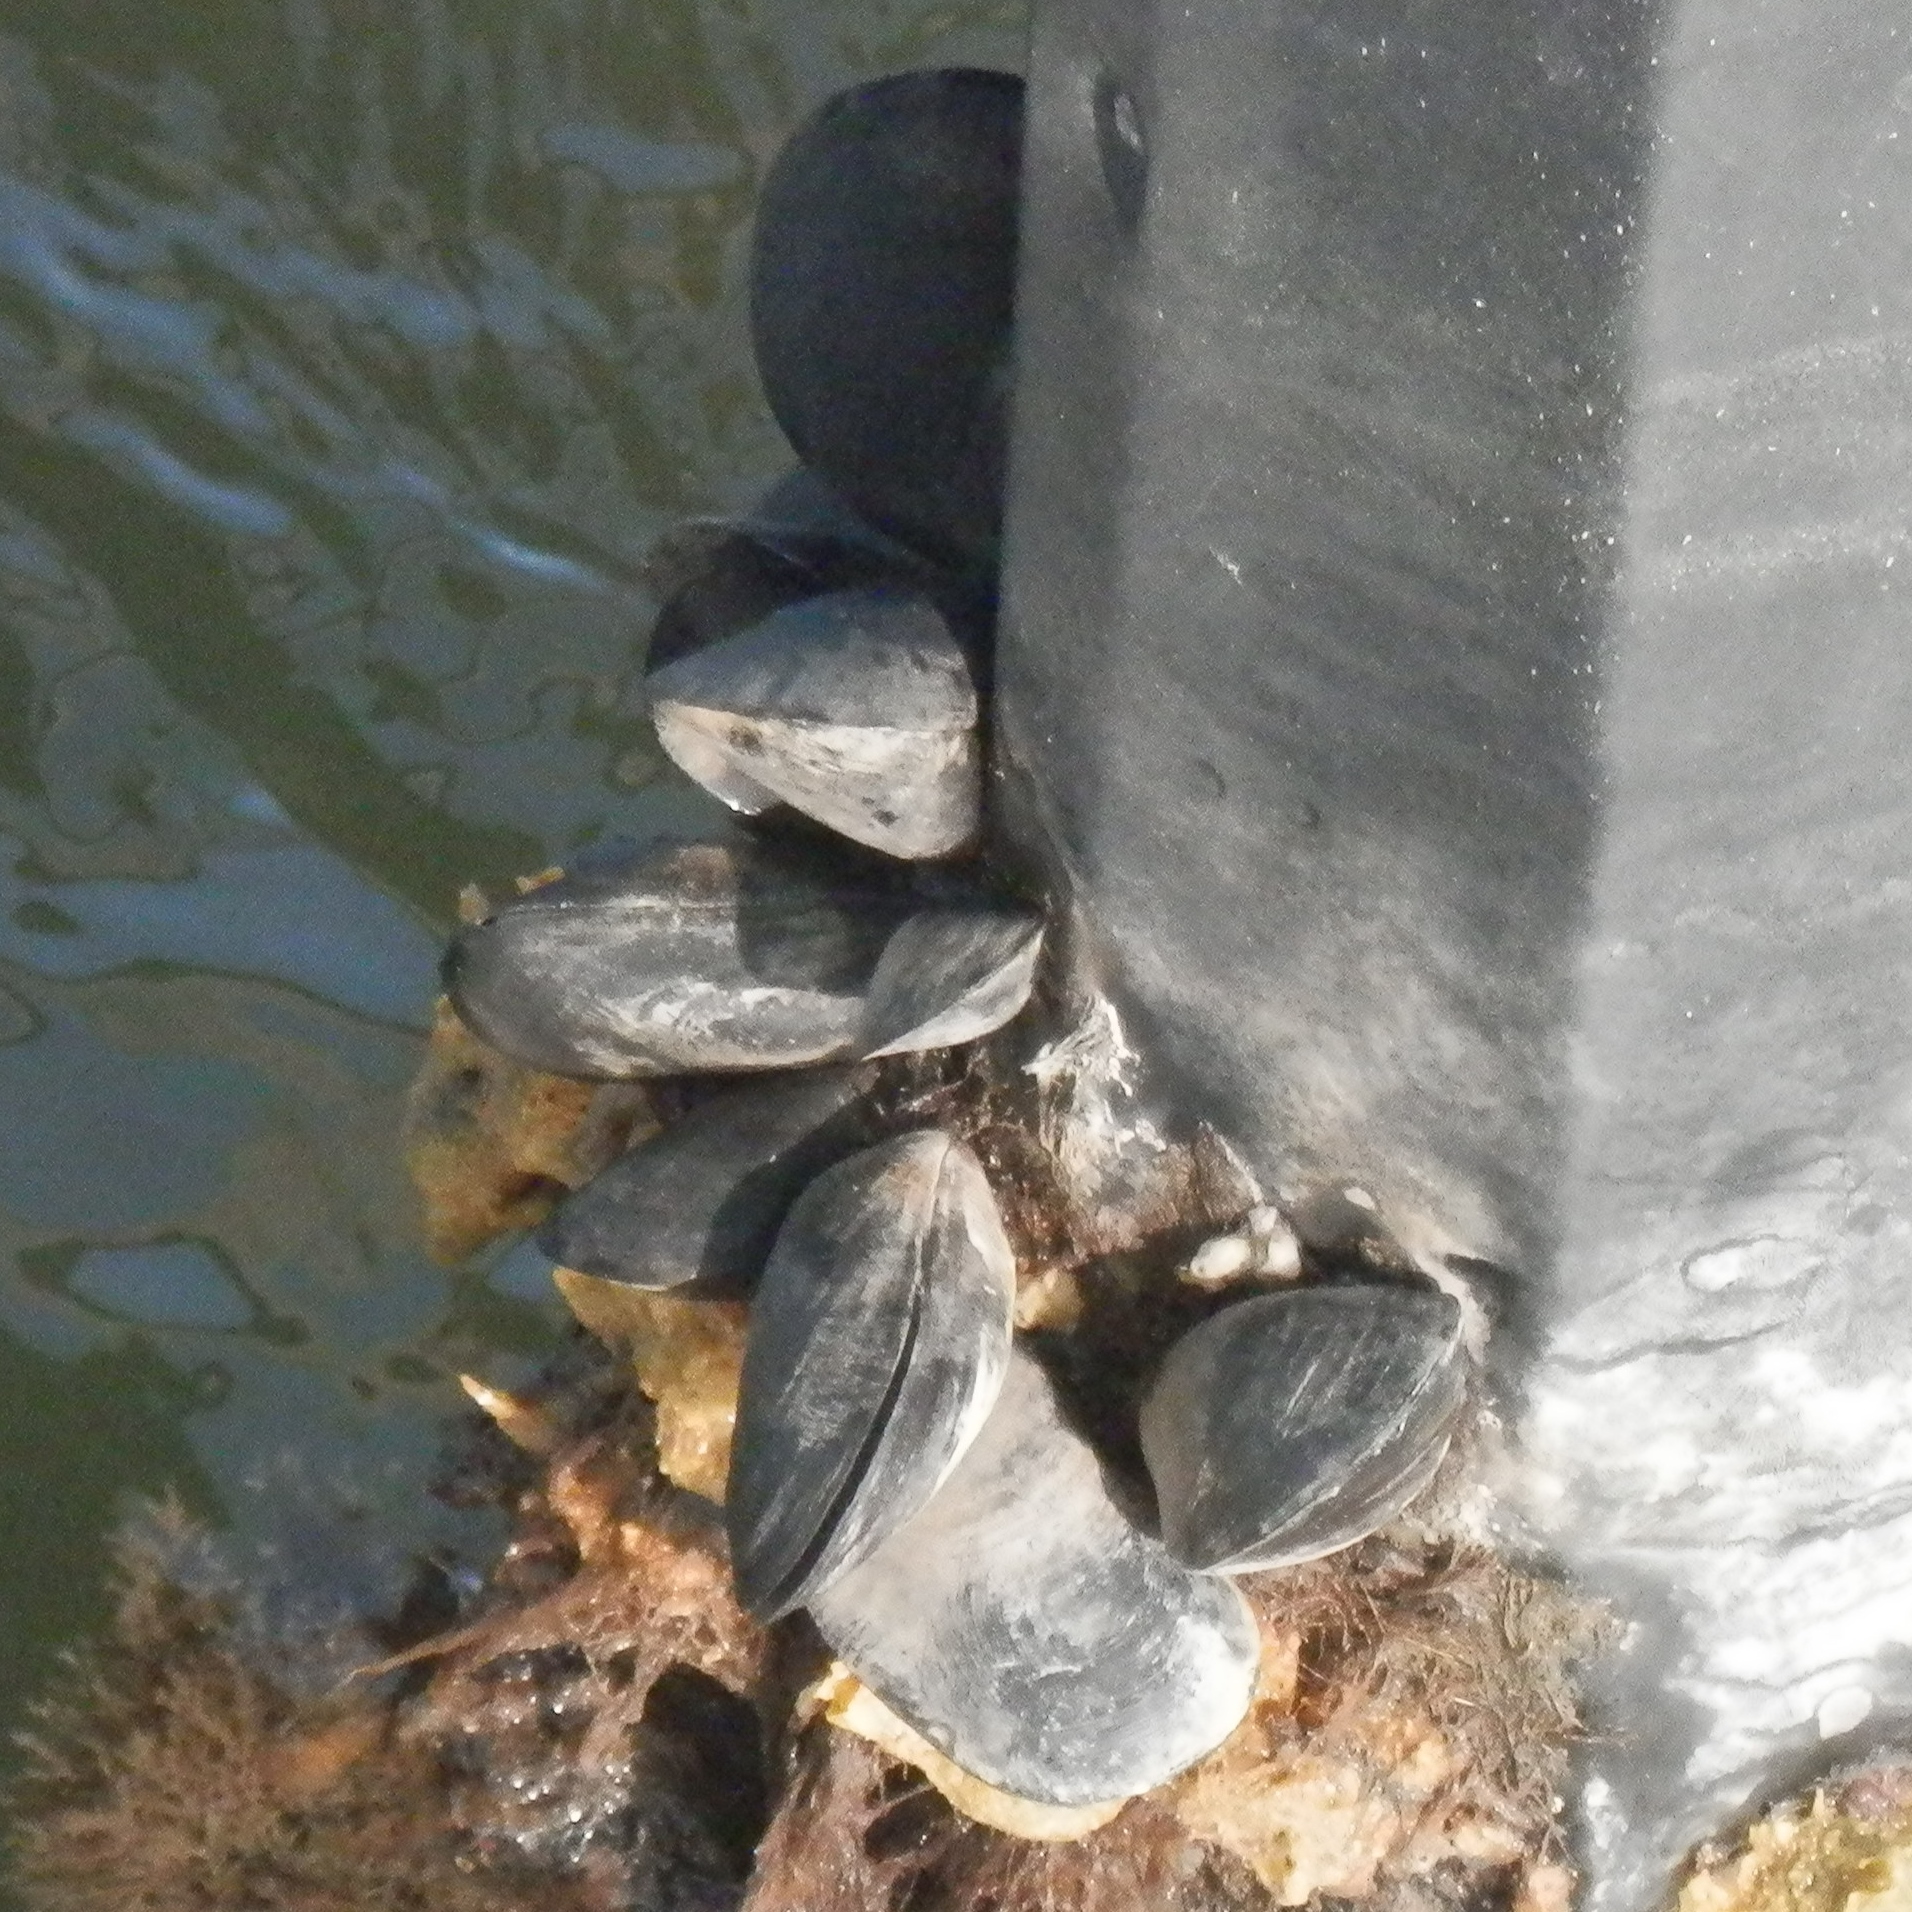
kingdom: Animalia
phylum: Mollusca
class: Bivalvia
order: Mytilida
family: Mytilidae
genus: Mytilus
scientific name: Mytilus
